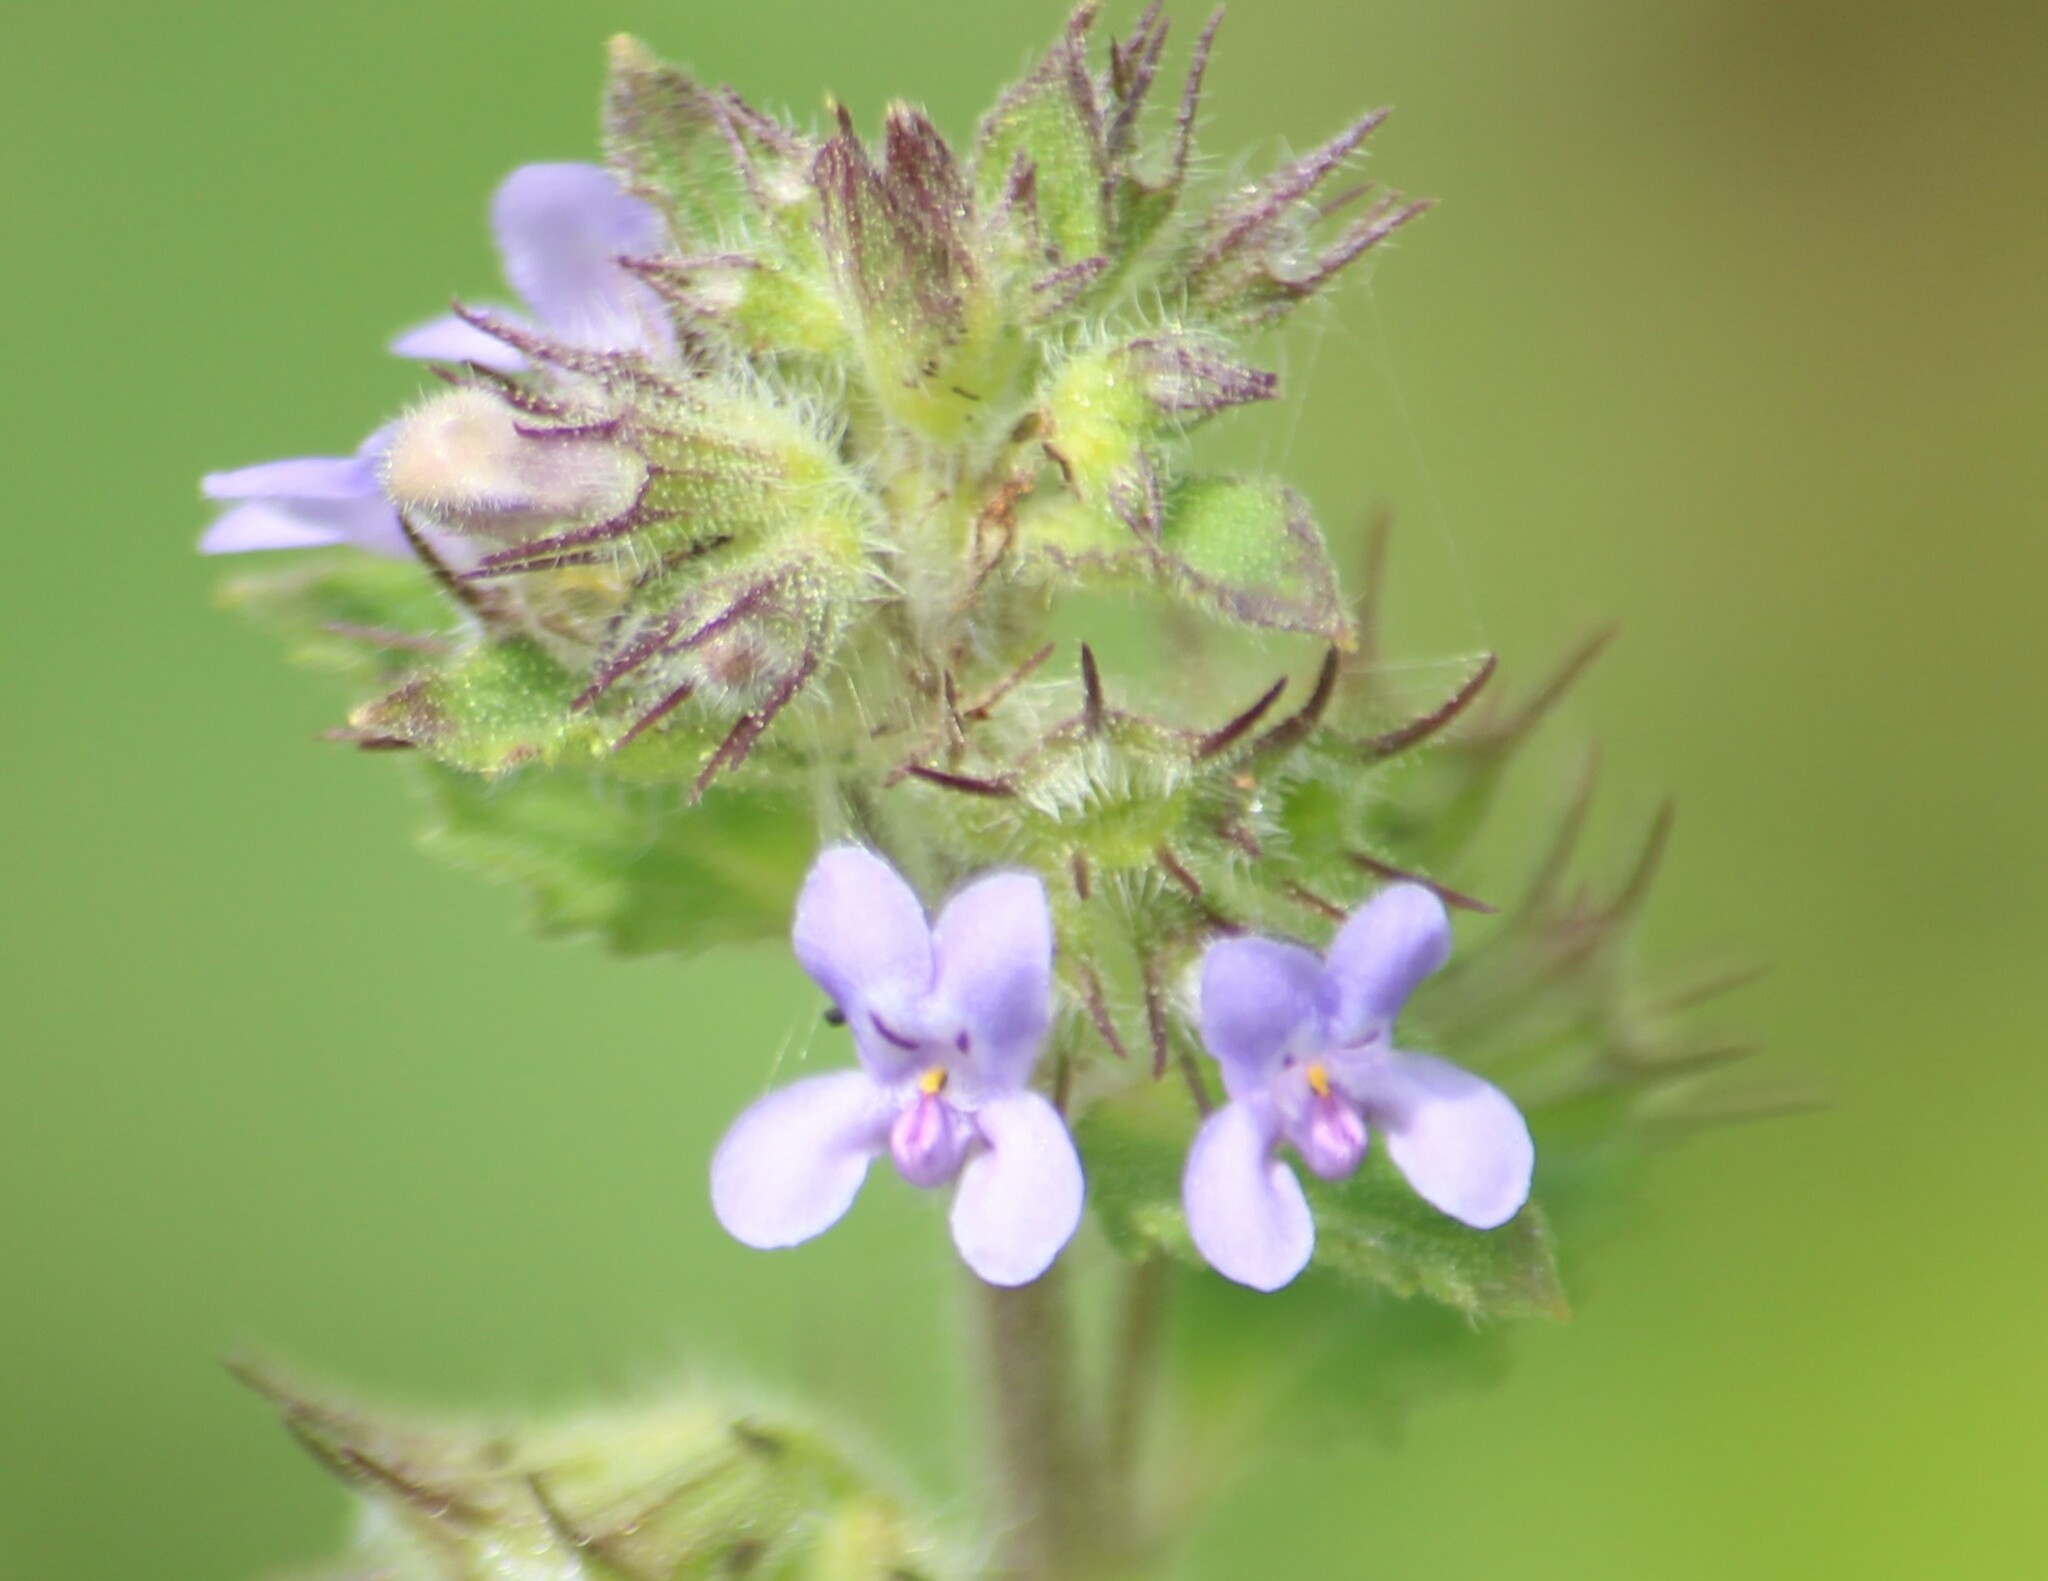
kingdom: Plantae
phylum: Tracheophyta
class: Magnoliopsida
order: Lamiales
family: Lamiaceae
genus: Mesosphaerum
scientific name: Mesosphaerum suaveolens
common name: Pignut
